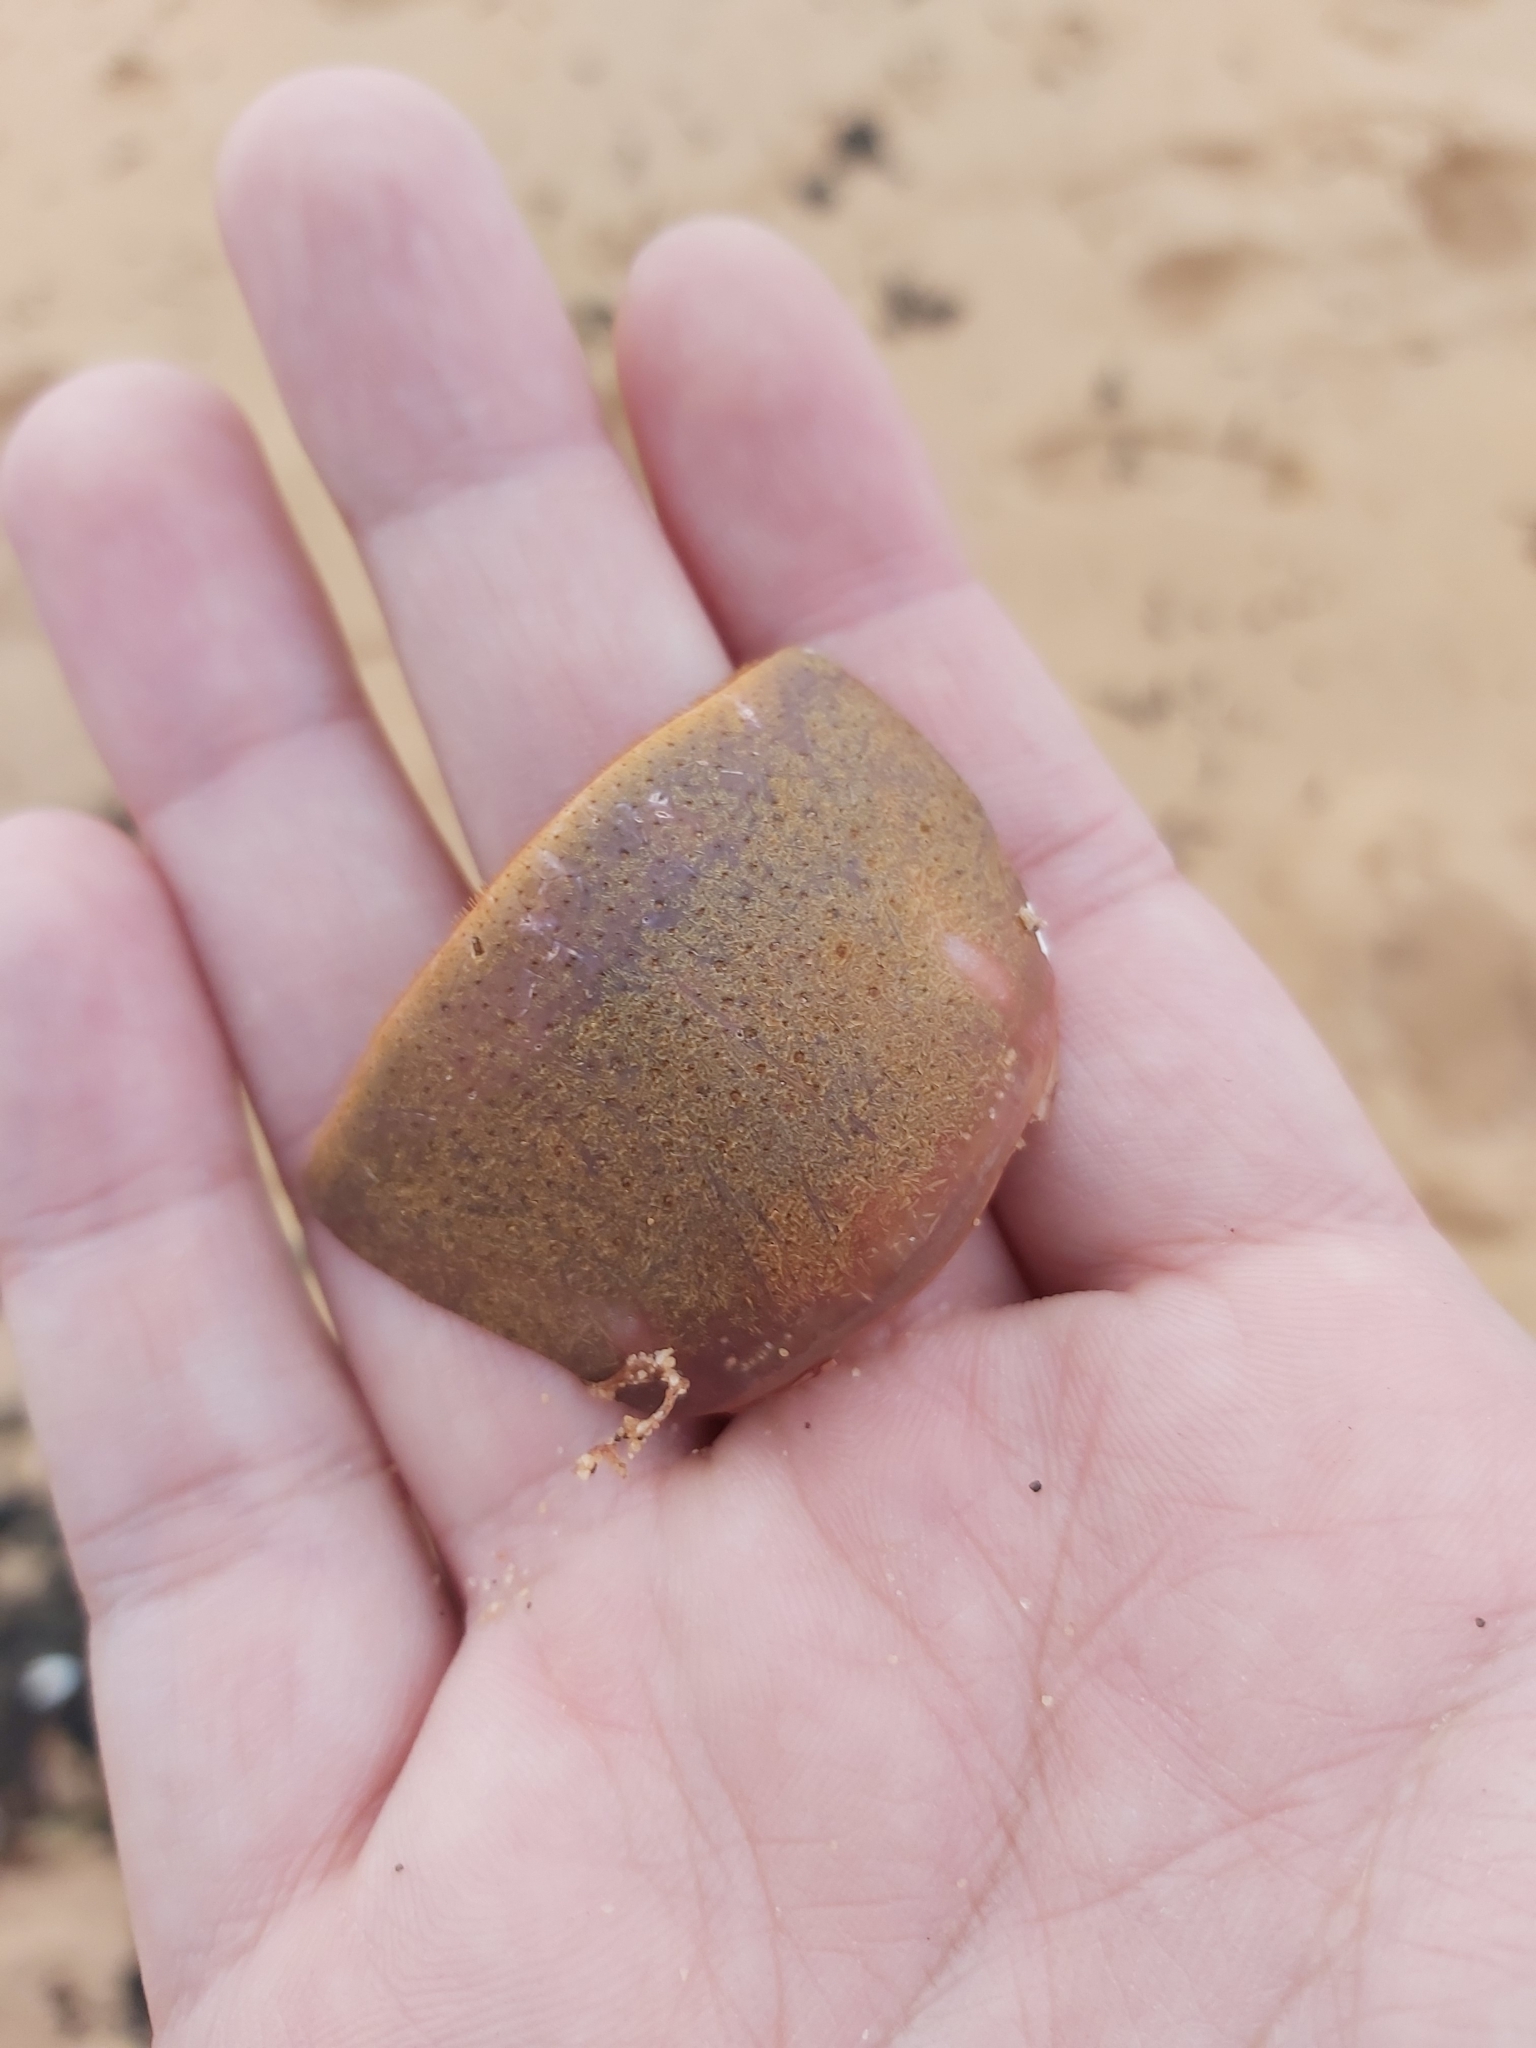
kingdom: Animalia
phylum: Arthropoda
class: Malacostraca
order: Decapoda
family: Palinuridae
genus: Sagmariasus
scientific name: Sagmariasus verreauxi
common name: Green rock lobster
